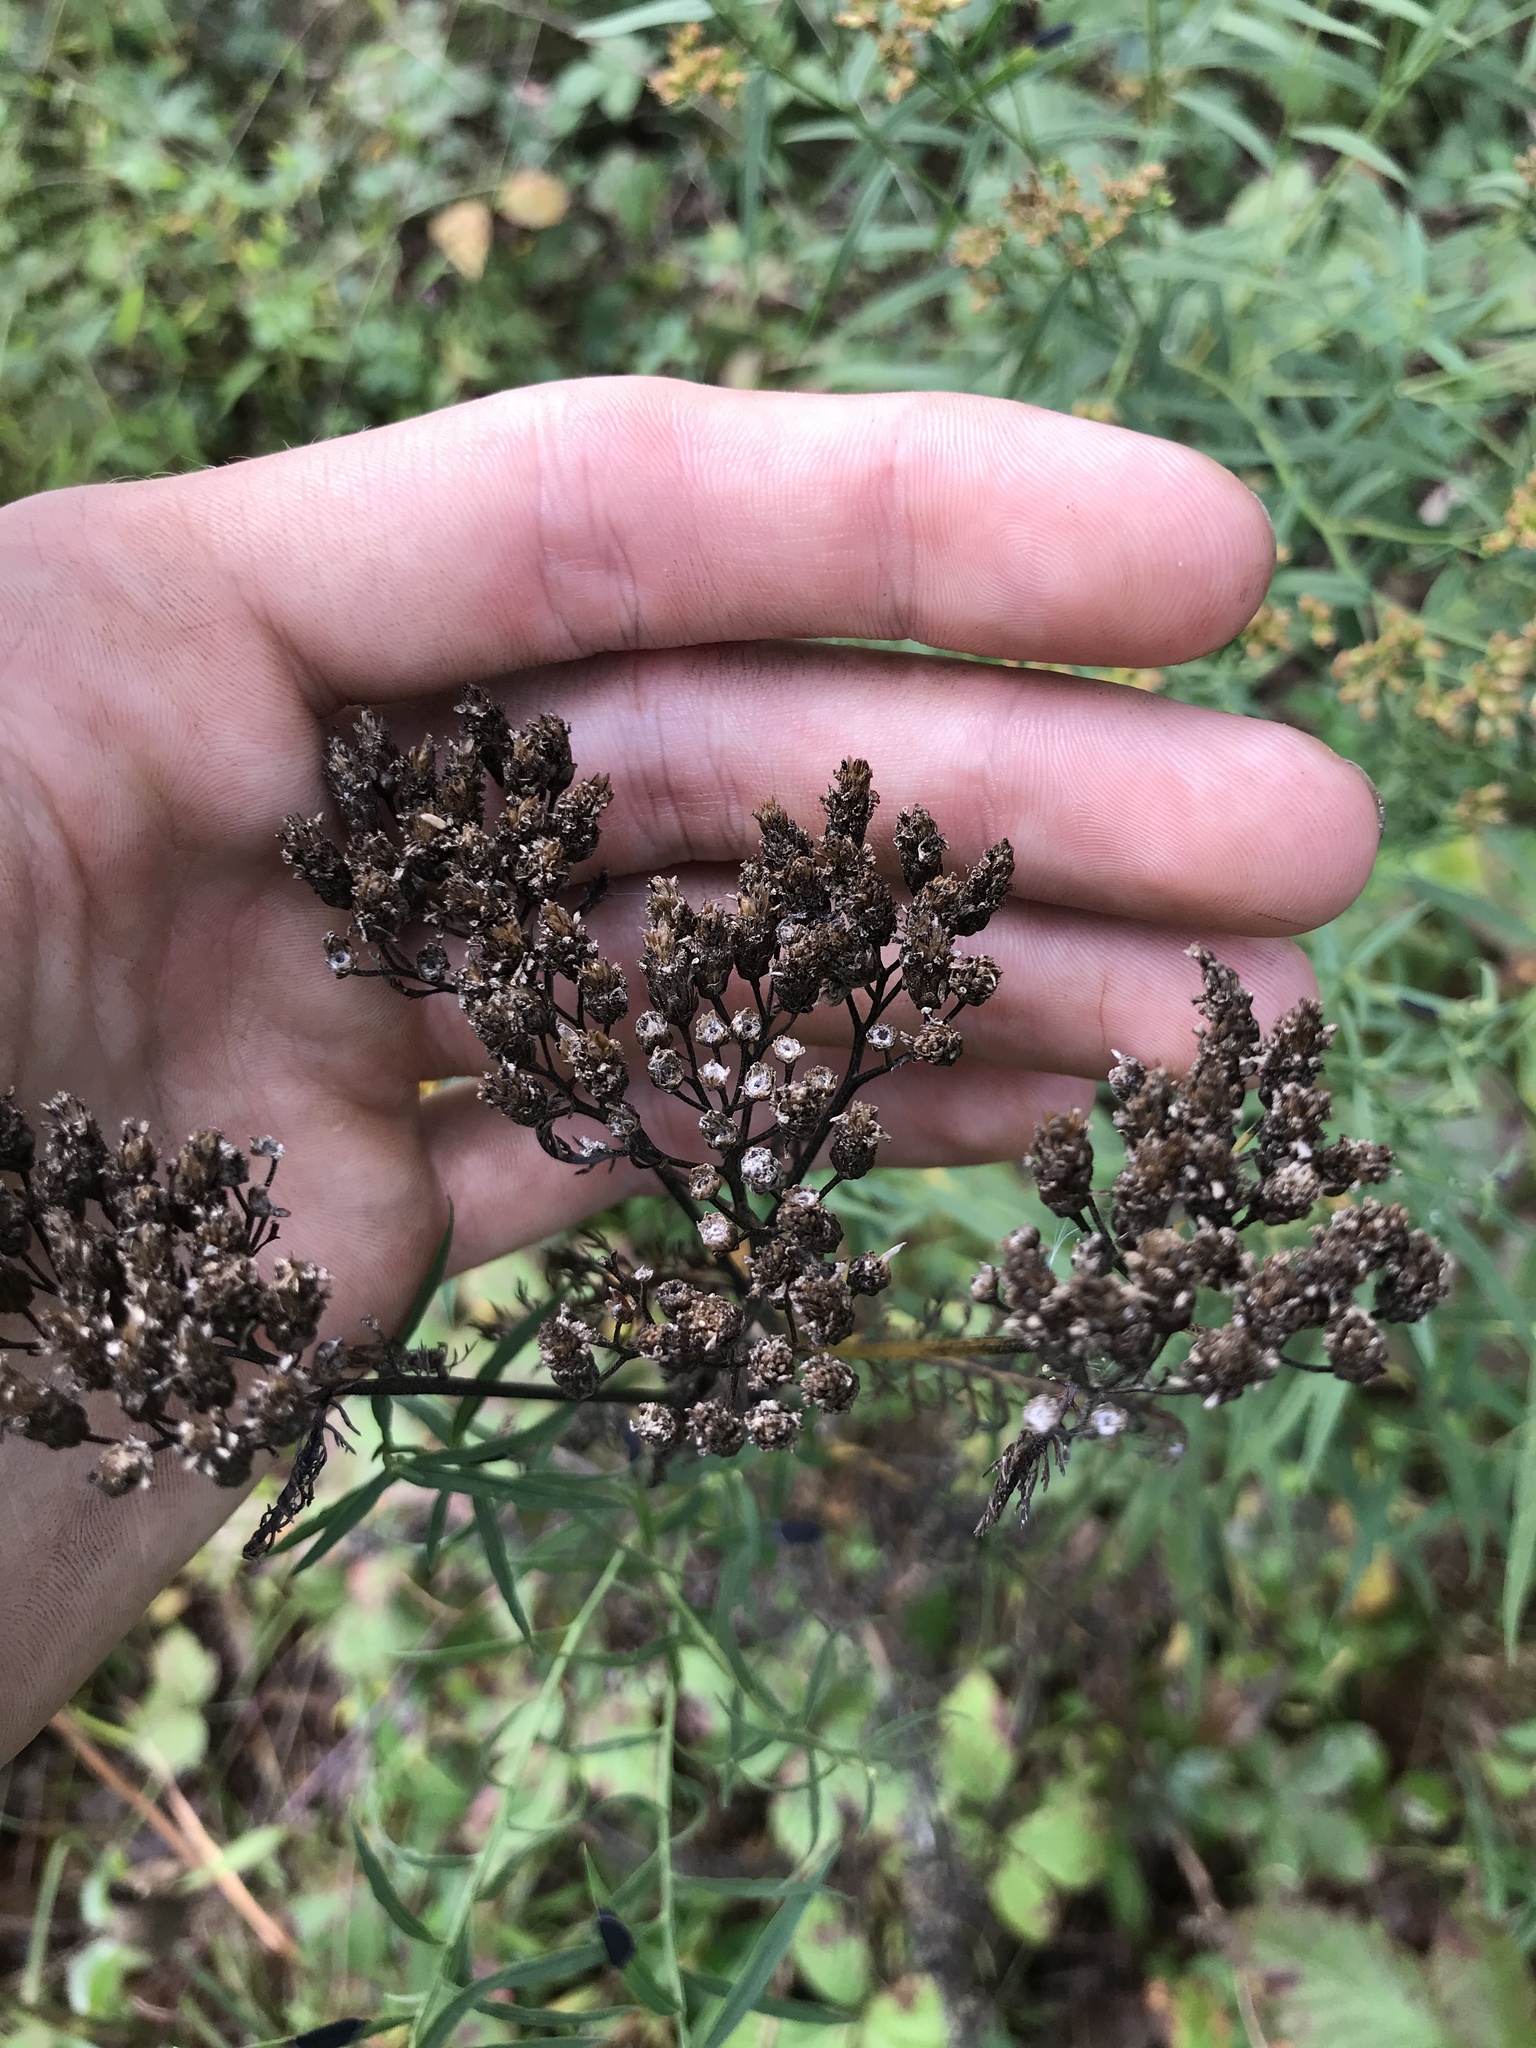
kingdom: Plantae
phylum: Tracheophyta
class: Magnoliopsida
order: Asterales
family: Asteraceae
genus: Achillea
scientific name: Achillea millefolium
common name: Yarrow
